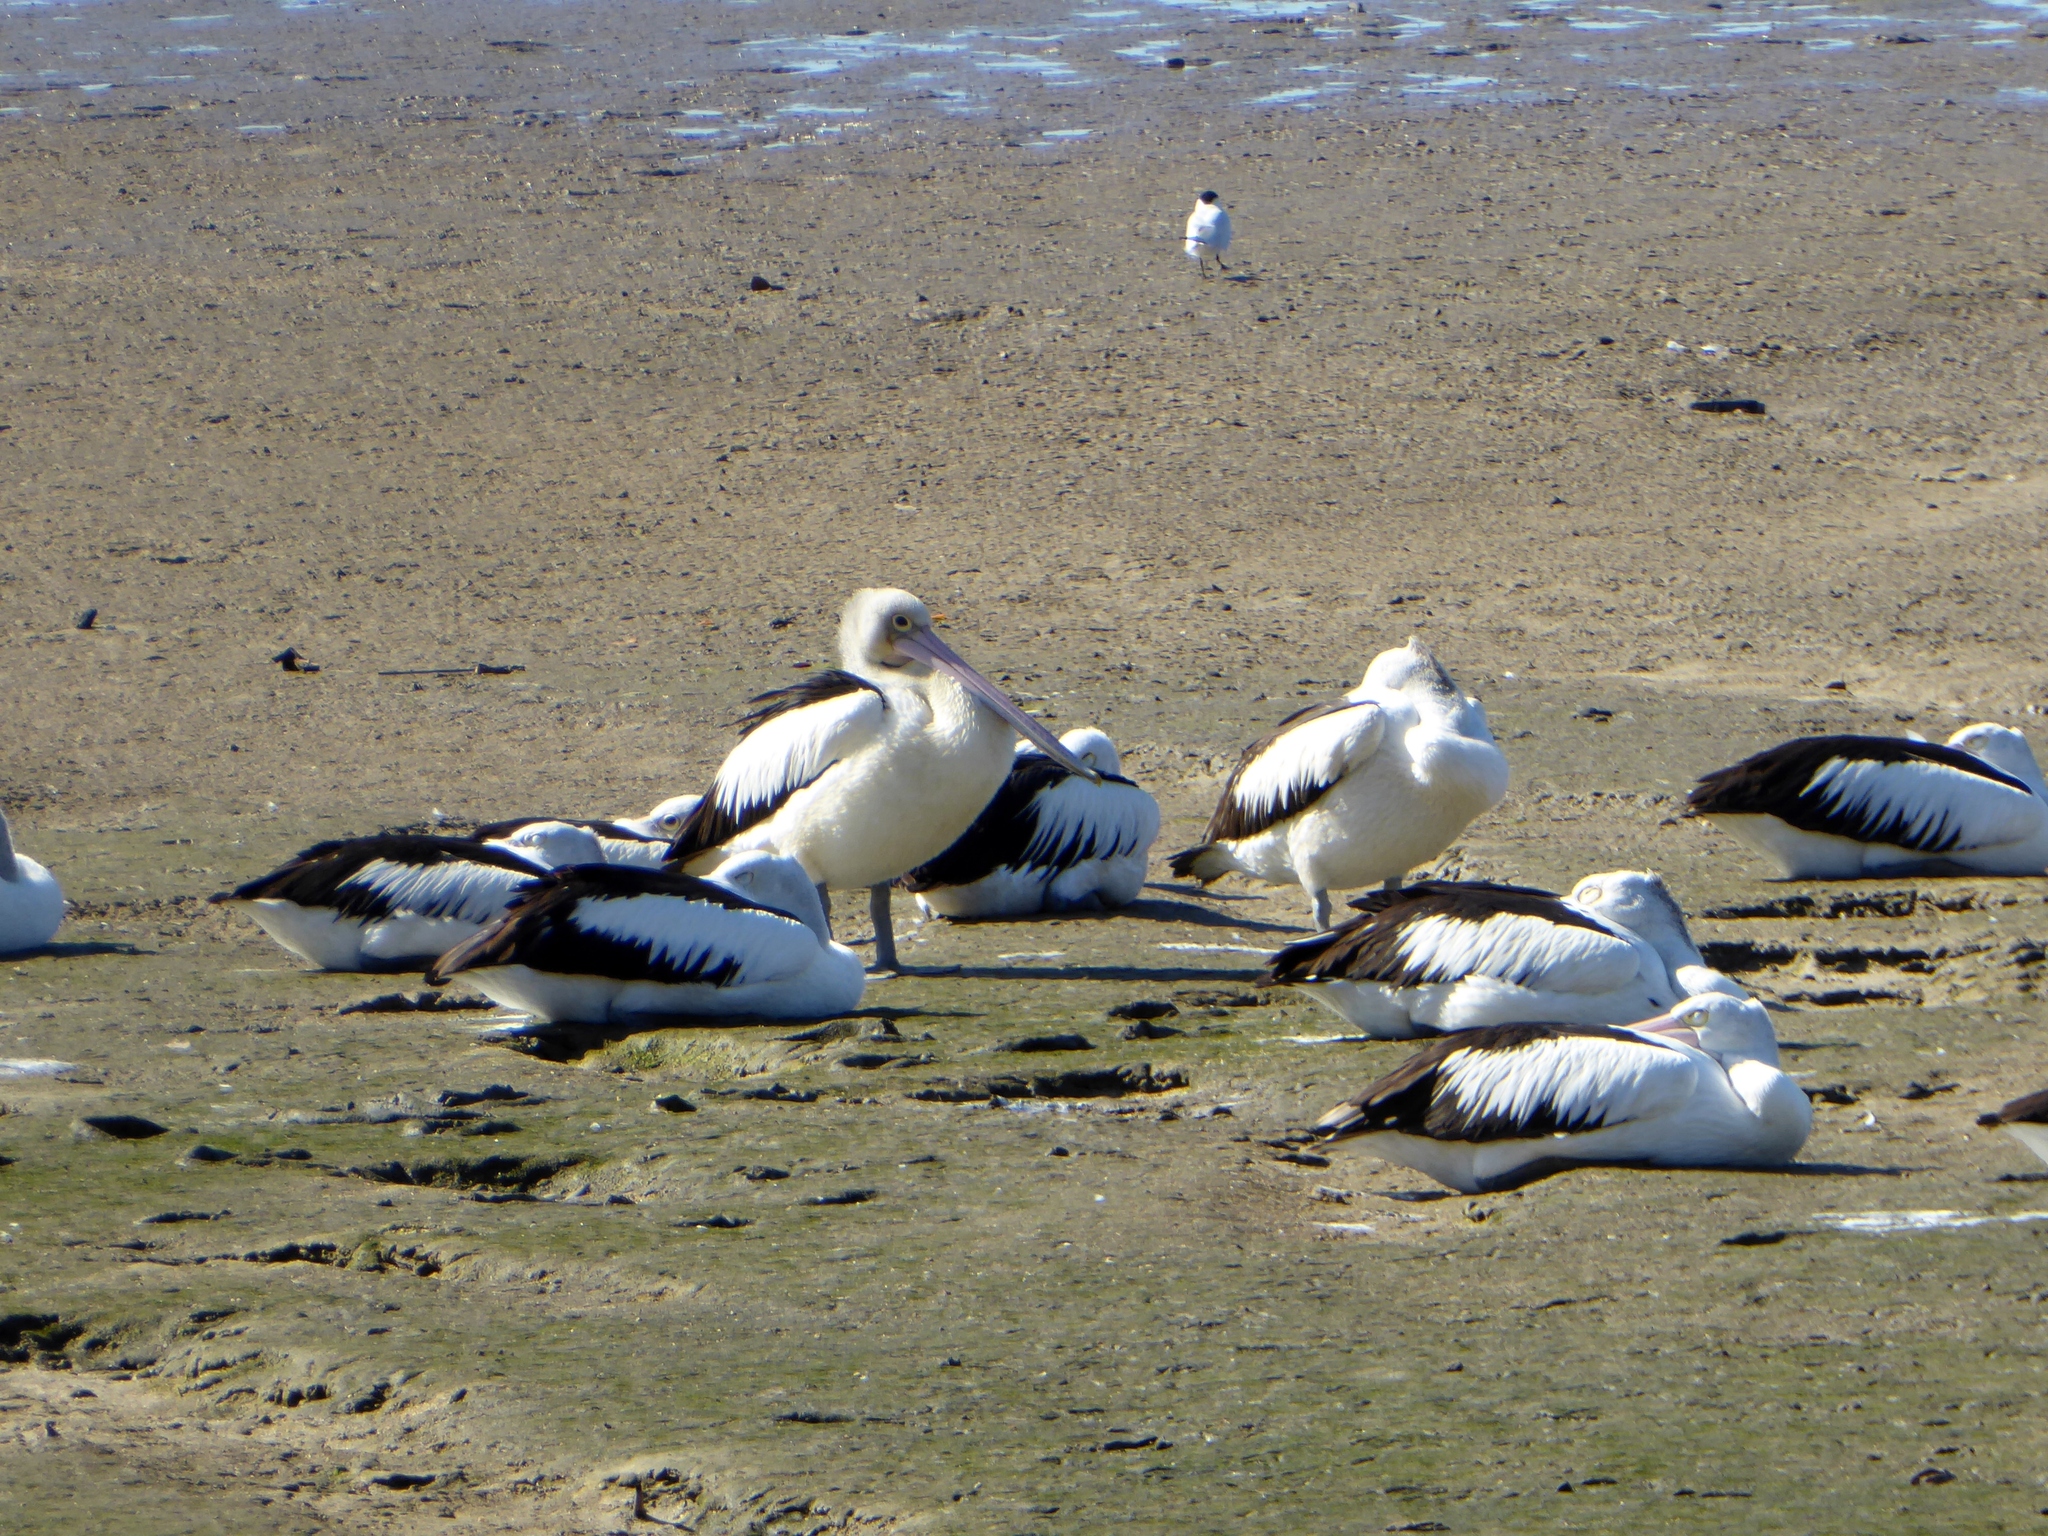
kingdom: Animalia
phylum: Chordata
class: Aves
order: Pelecaniformes
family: Pelecanidae
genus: Pelecanus
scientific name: Pelecanus conspicillatus
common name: Australian pelican
